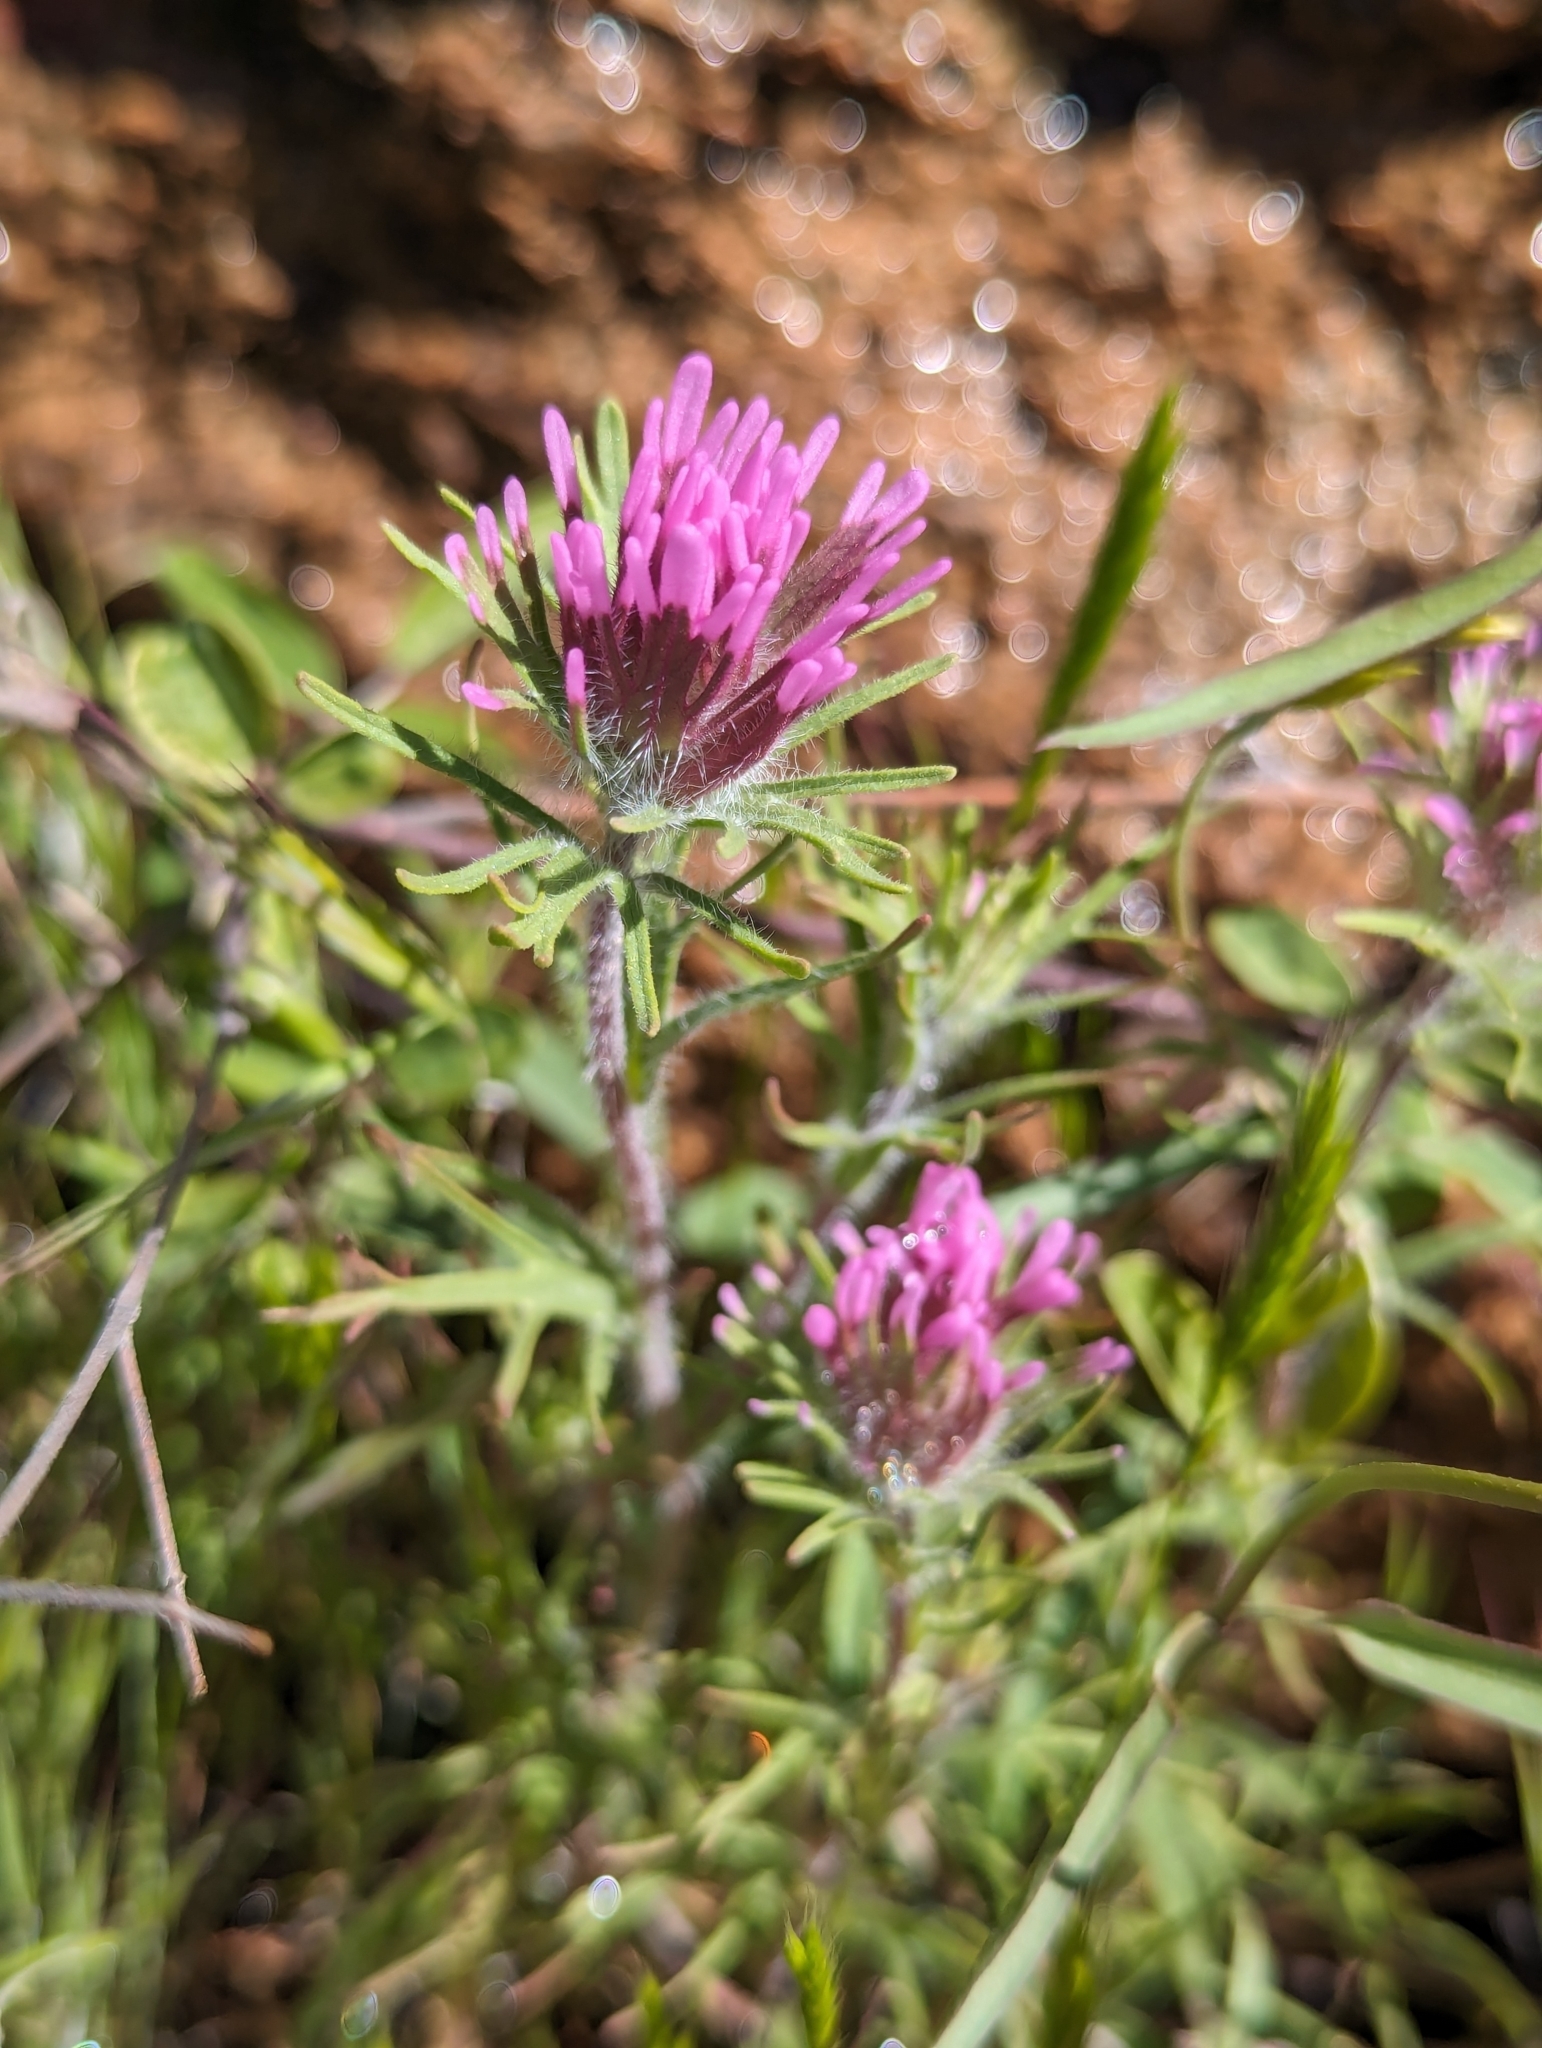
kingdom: Plantae
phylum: Tracheophyta
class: Magnoliopsida
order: Lamiales
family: Orobanchaceae
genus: Castilleja
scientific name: Castilleja exserta
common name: Purple owl-clover
